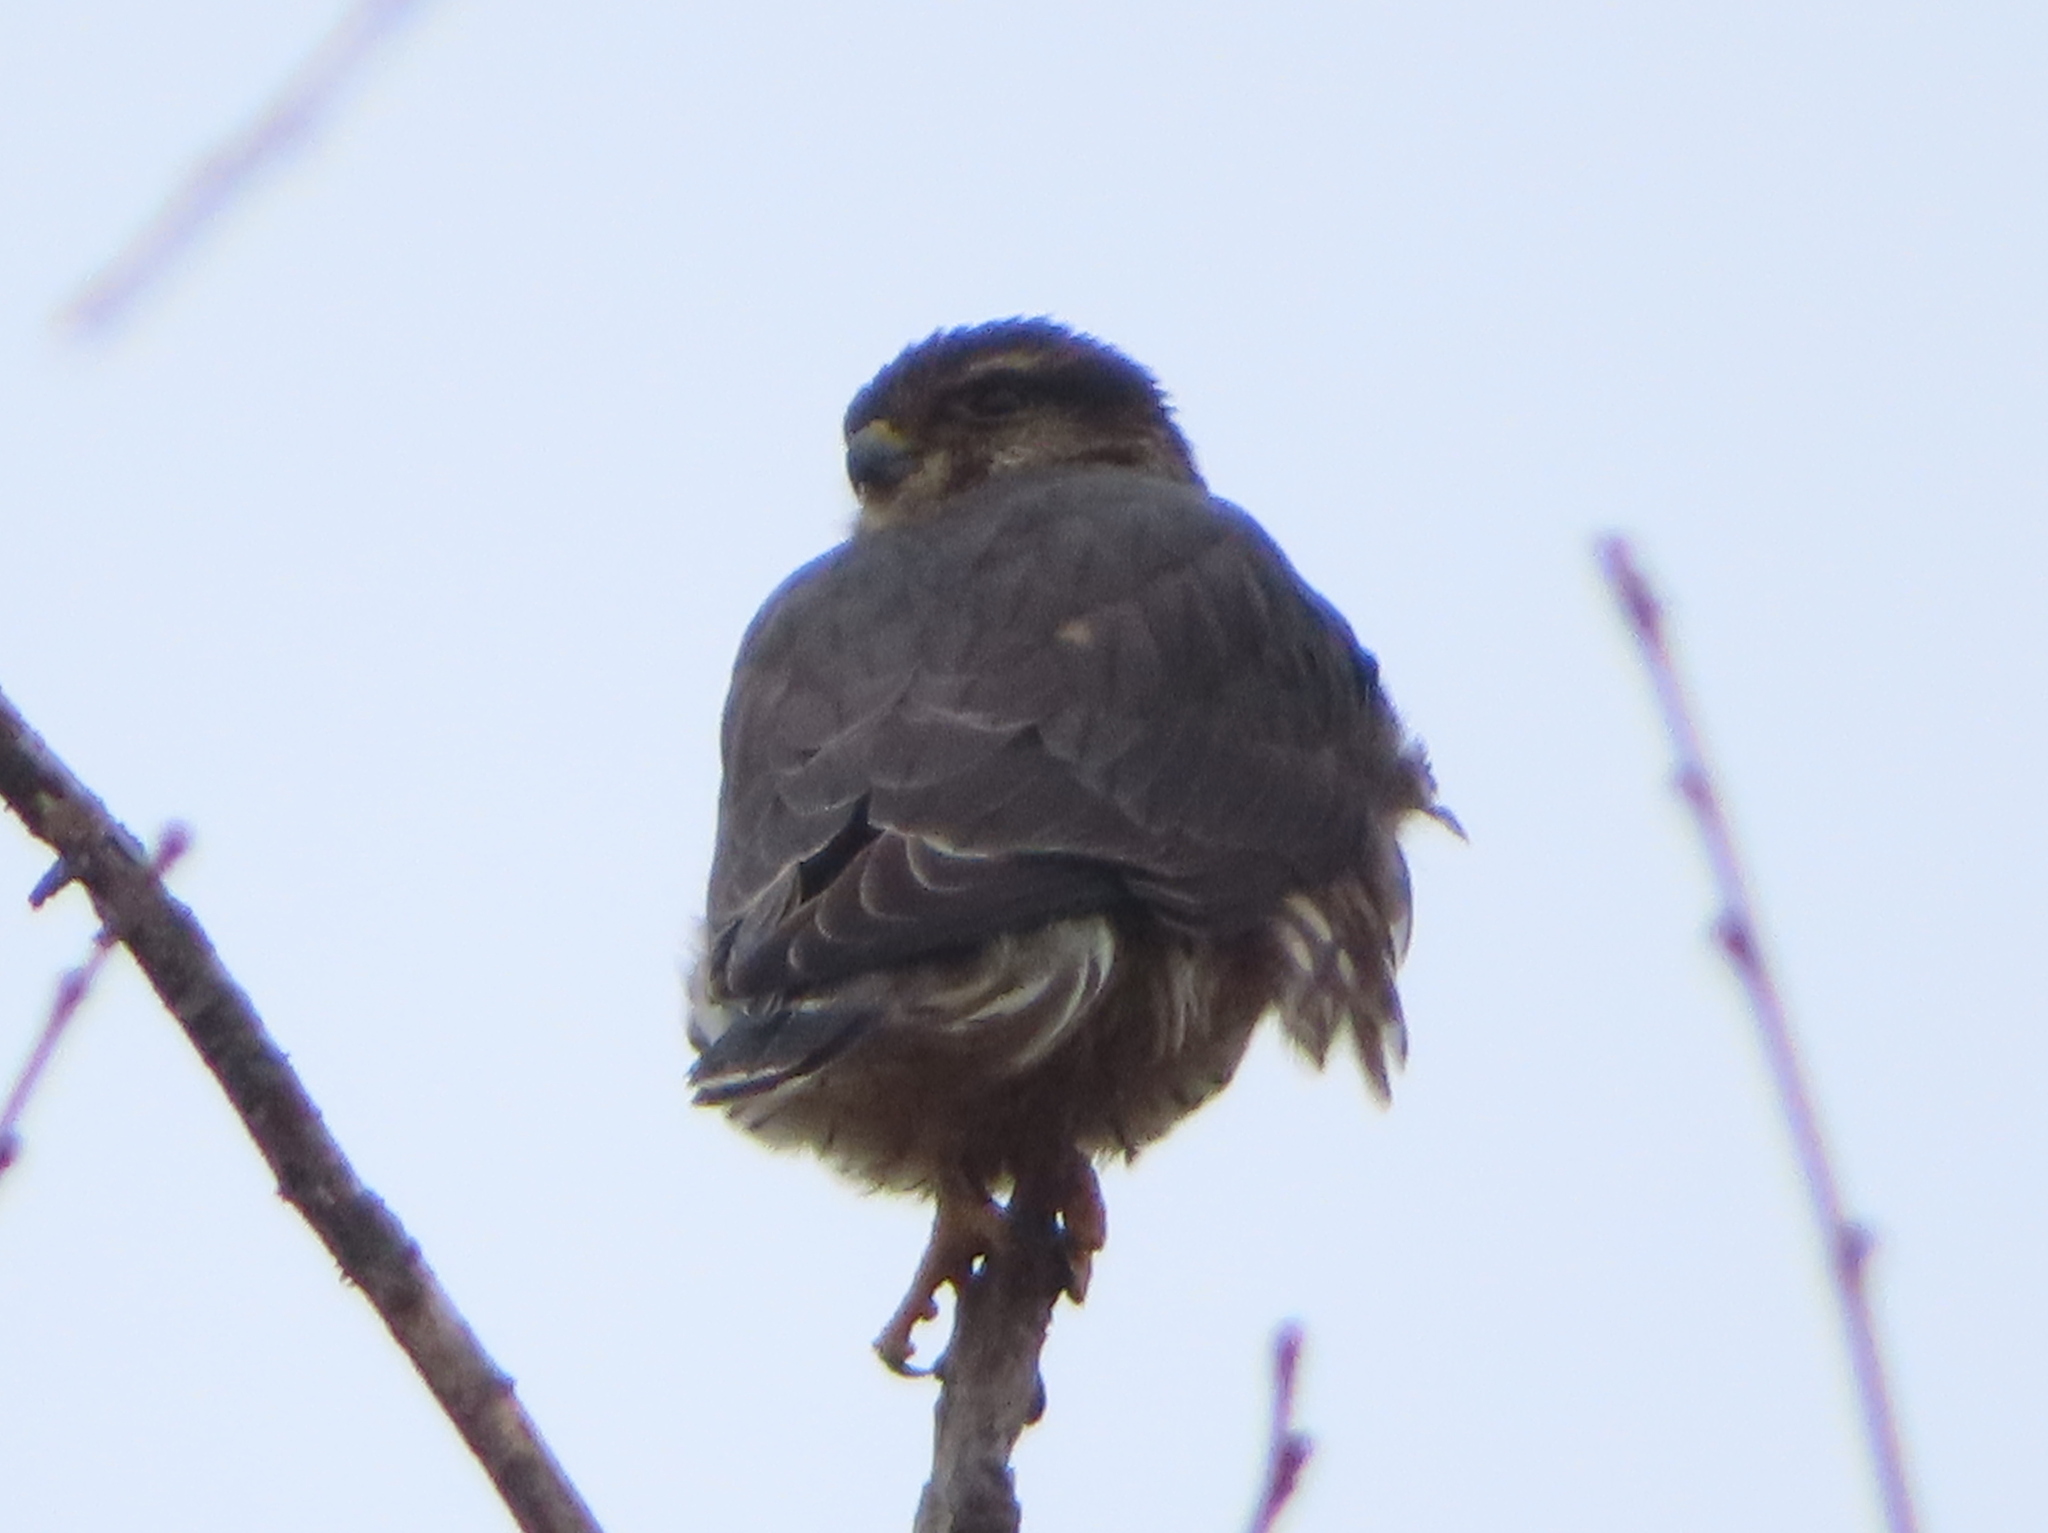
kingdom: Animalia
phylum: Chordata
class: Aves
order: Falconiformes
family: Falconidae
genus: Falco
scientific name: Falco columbarius
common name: Merlin
